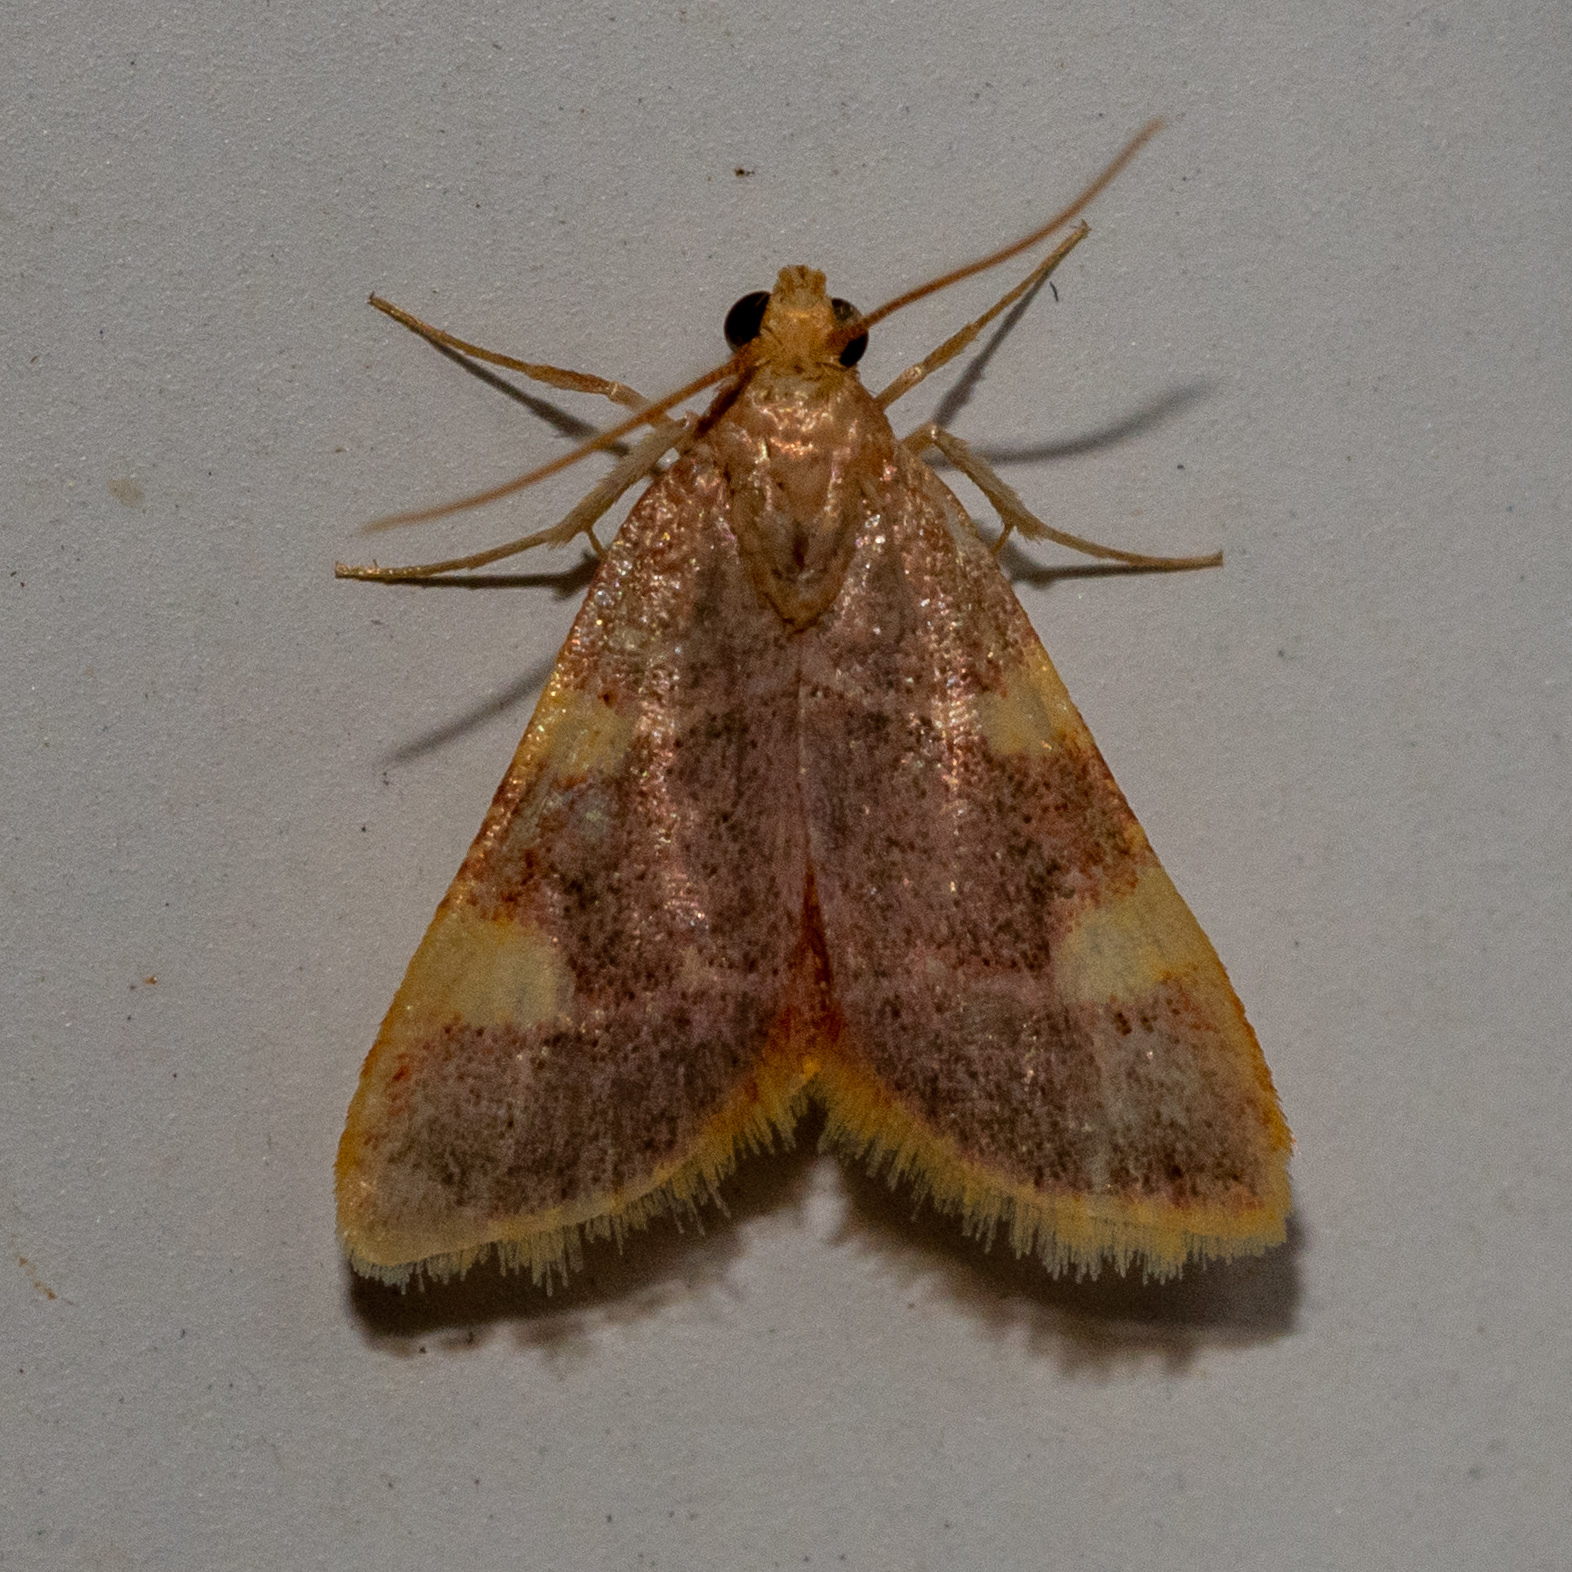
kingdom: Animalia
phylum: Arthropoda
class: Insecta
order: Lepidoptera
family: Pyralidae
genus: Hypsopygia
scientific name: Hypsopygia costalis
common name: Gold triangle
